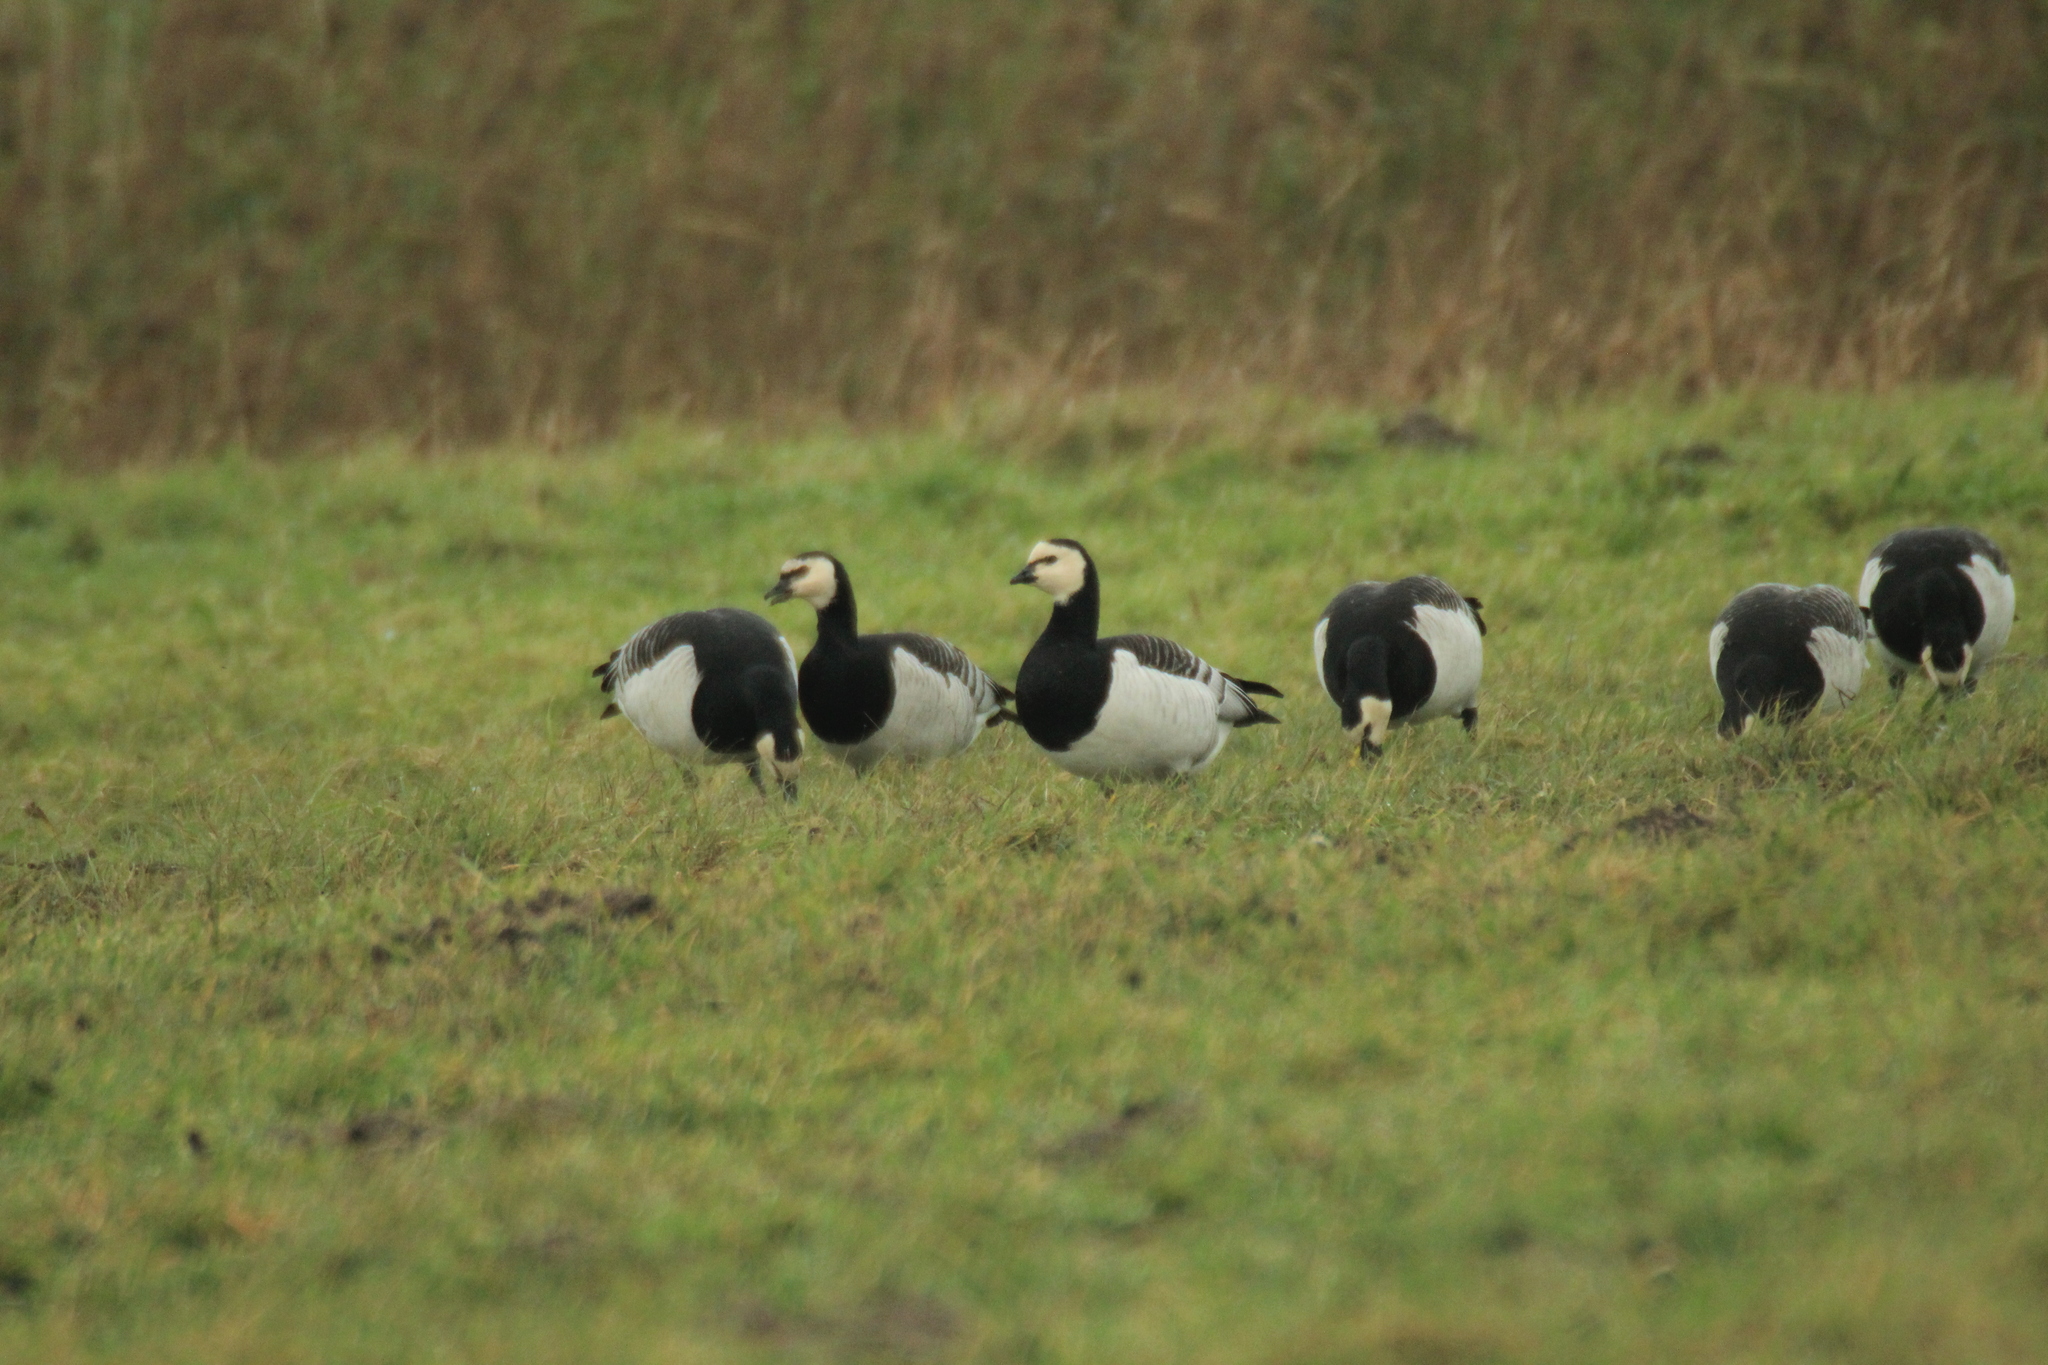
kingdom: Animalia
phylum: Chordata
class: Aves
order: Anseriformes
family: Anatidae
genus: Branta
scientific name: Branta leucopsis
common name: Barnacle goose
